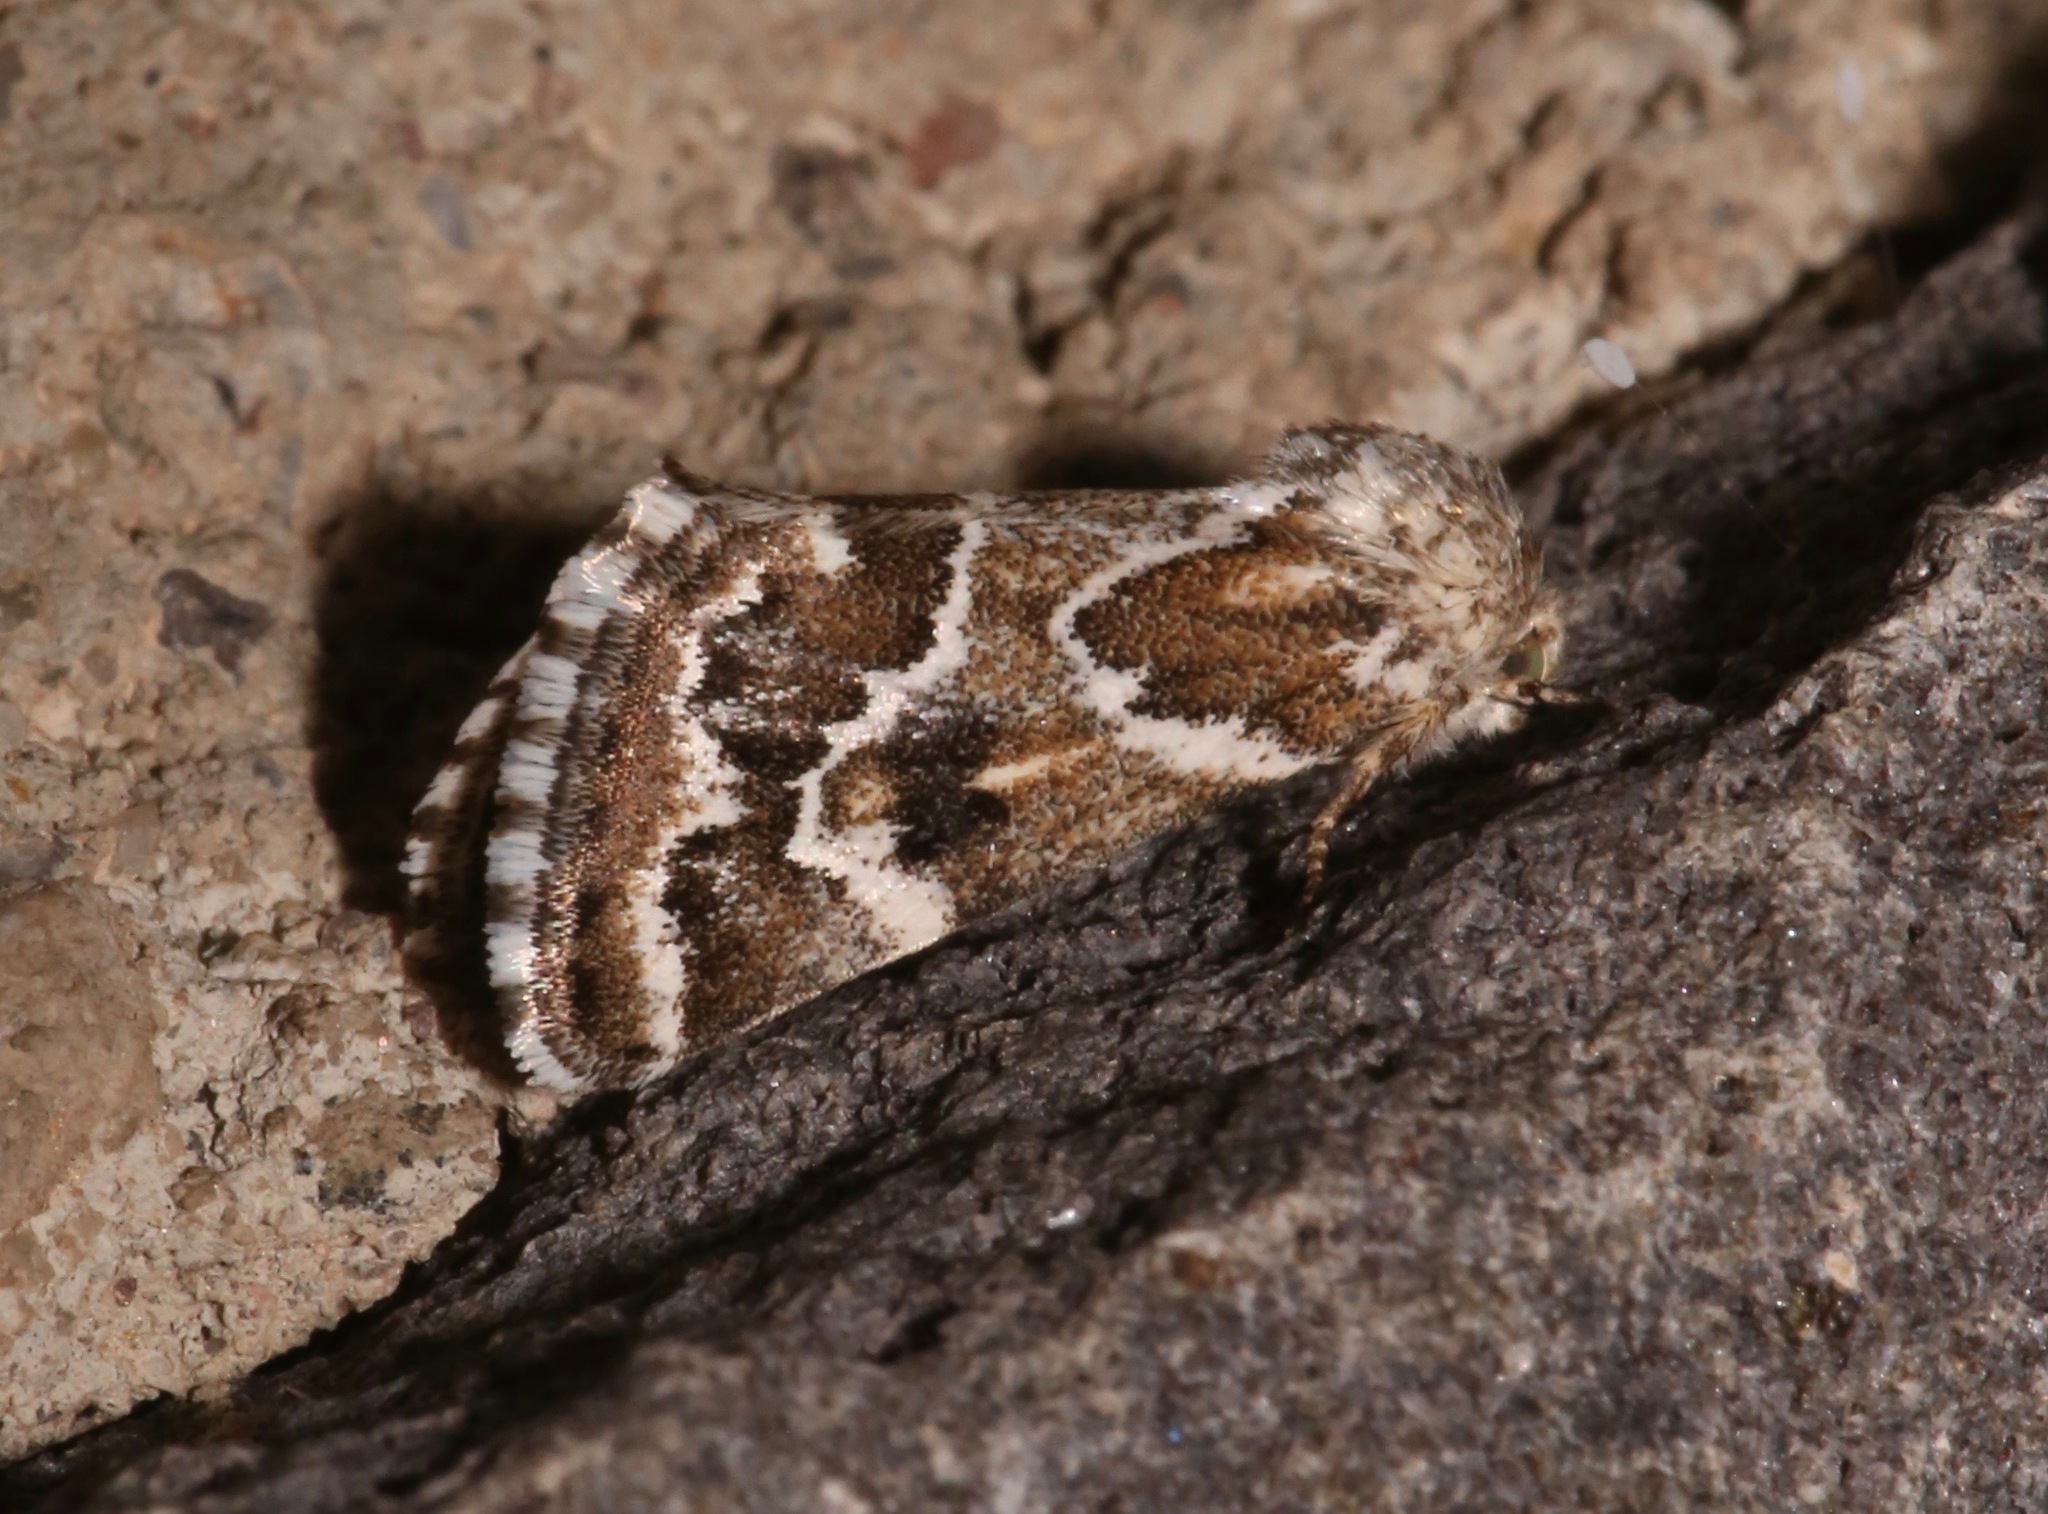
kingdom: Animalia
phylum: Arthropoda
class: Insecta
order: Lepidoptera
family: Noctuidae
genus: Schinia
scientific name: Schinia acutilinea
